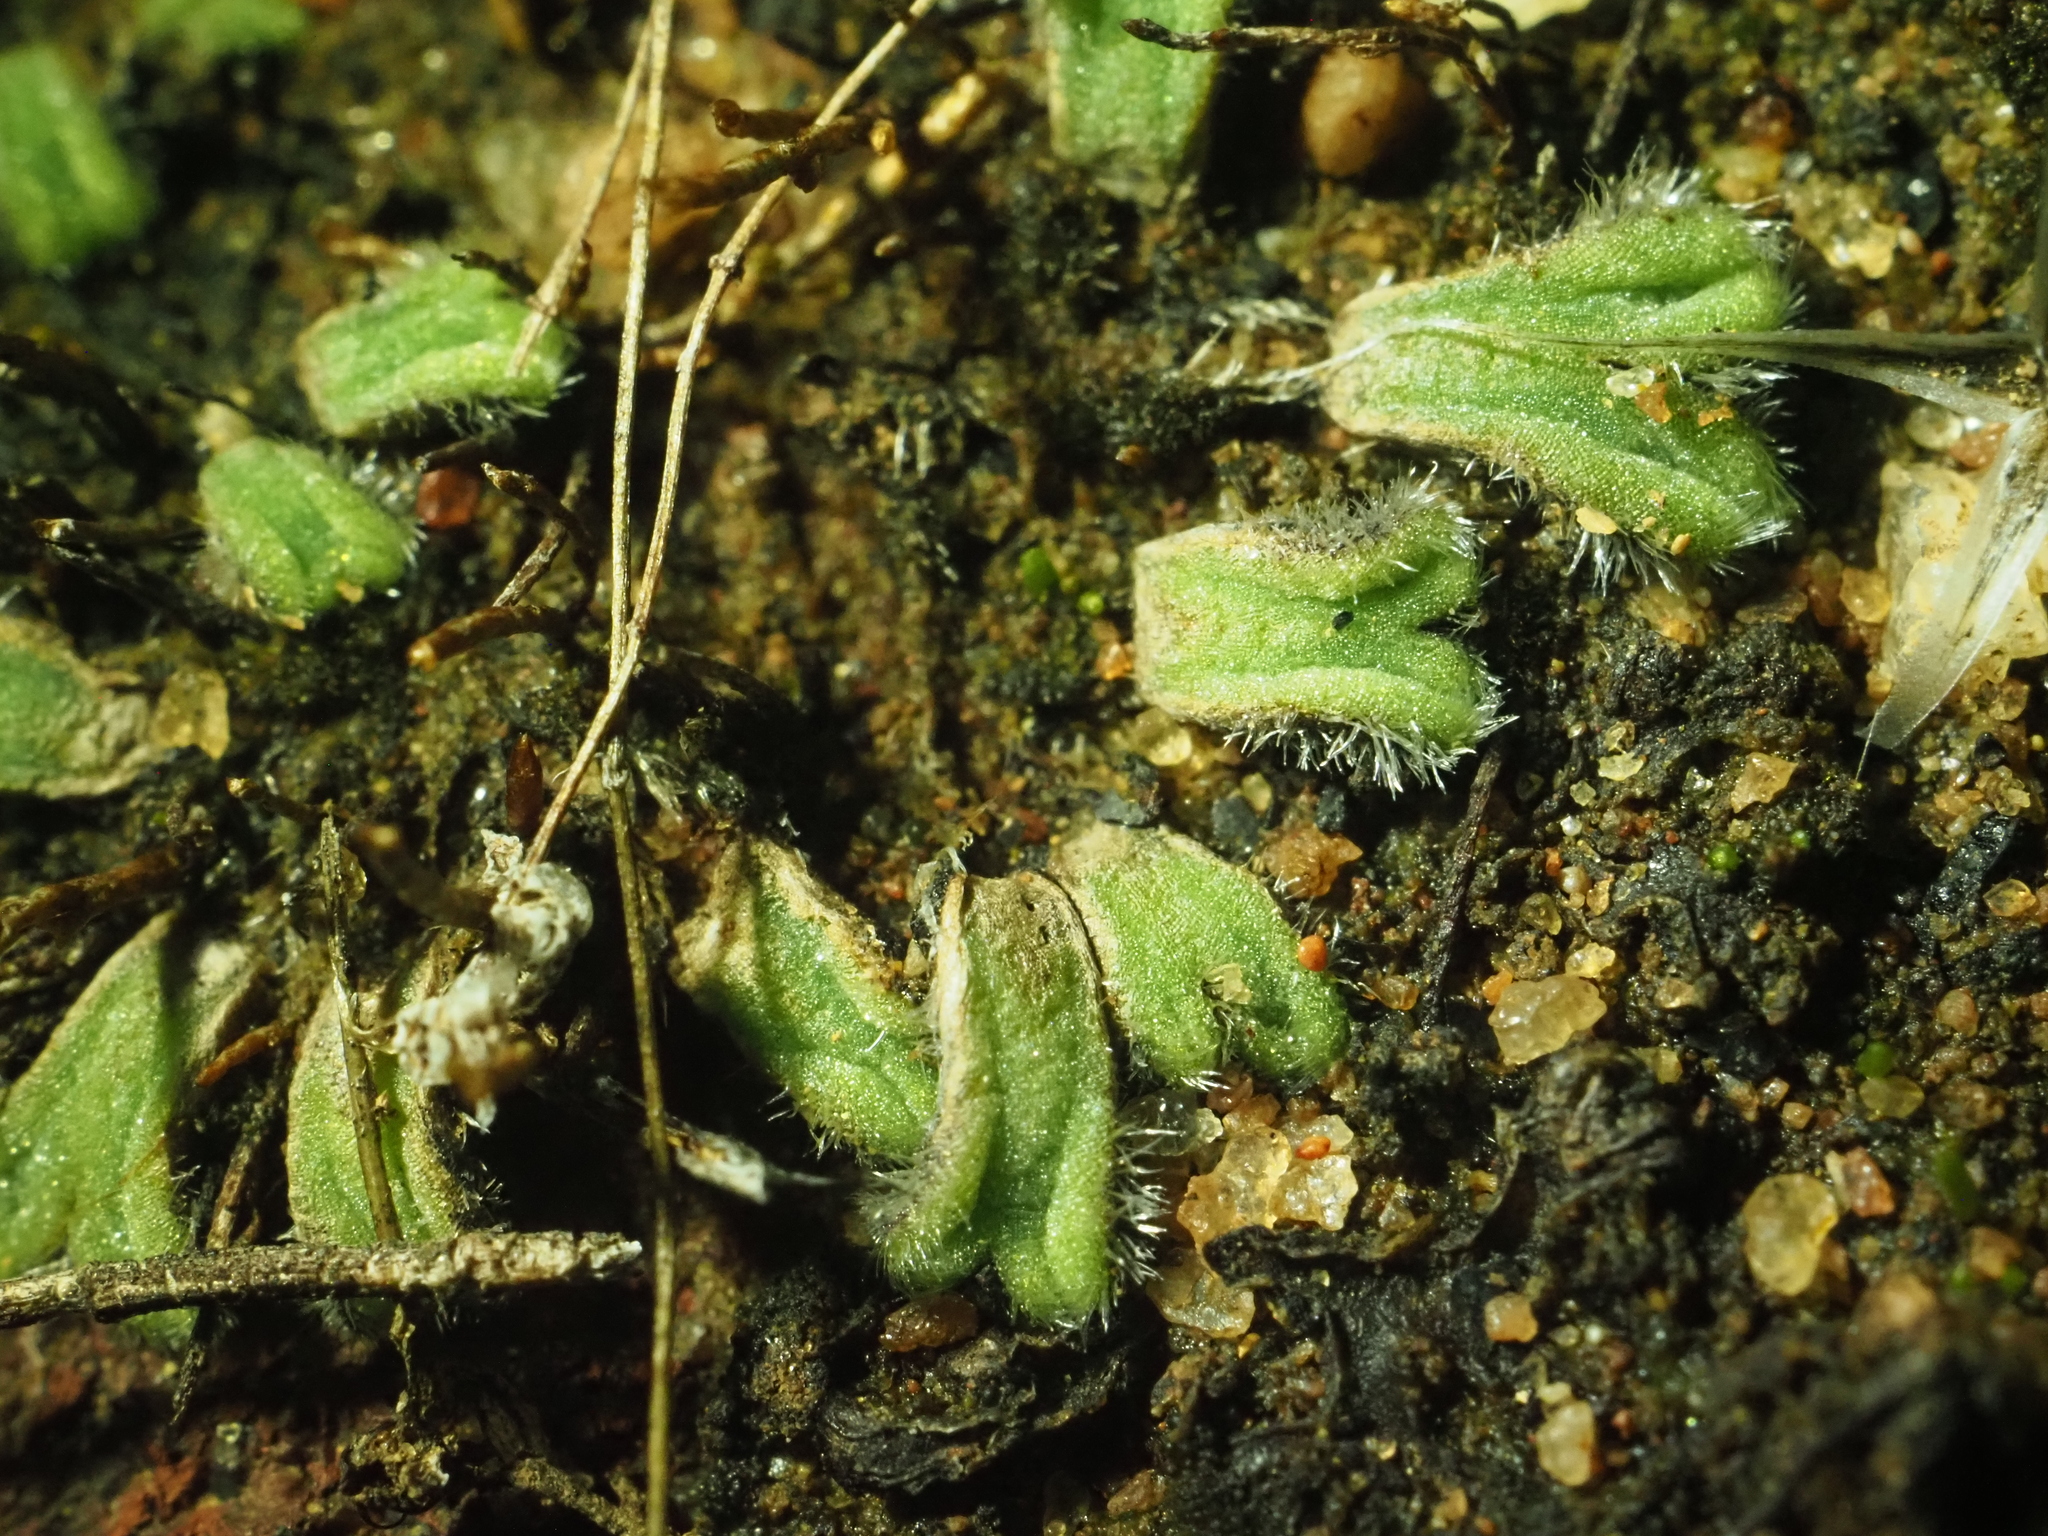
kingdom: Plantae
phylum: Marchantiophyta
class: Marchantiopsida
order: Marchantiales
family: Ricciaceae
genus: Riccia
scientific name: Riccia crinita
